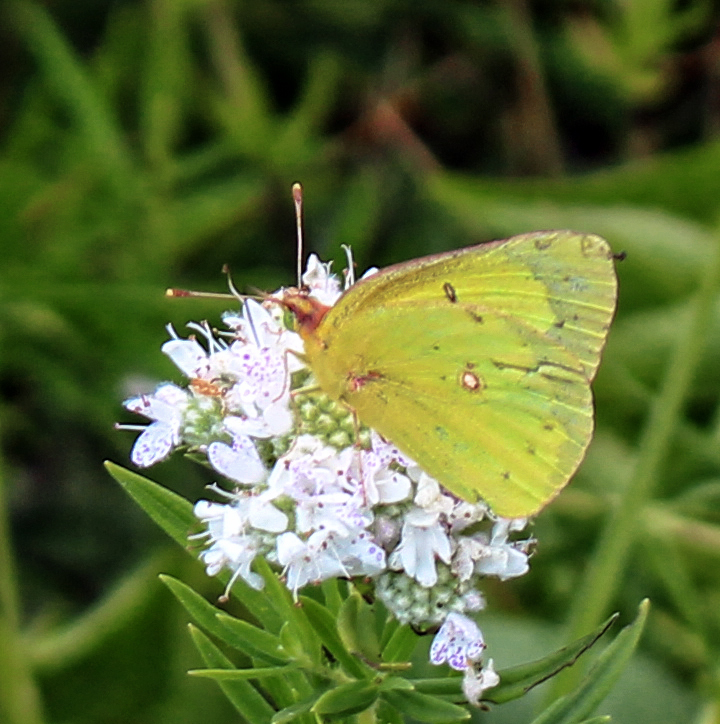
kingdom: Animalia
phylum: Arthropoda
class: Insecta
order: Lepidoptera
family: Pieridae
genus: Colias
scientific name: Colias philodice
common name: Clouded sulphur
